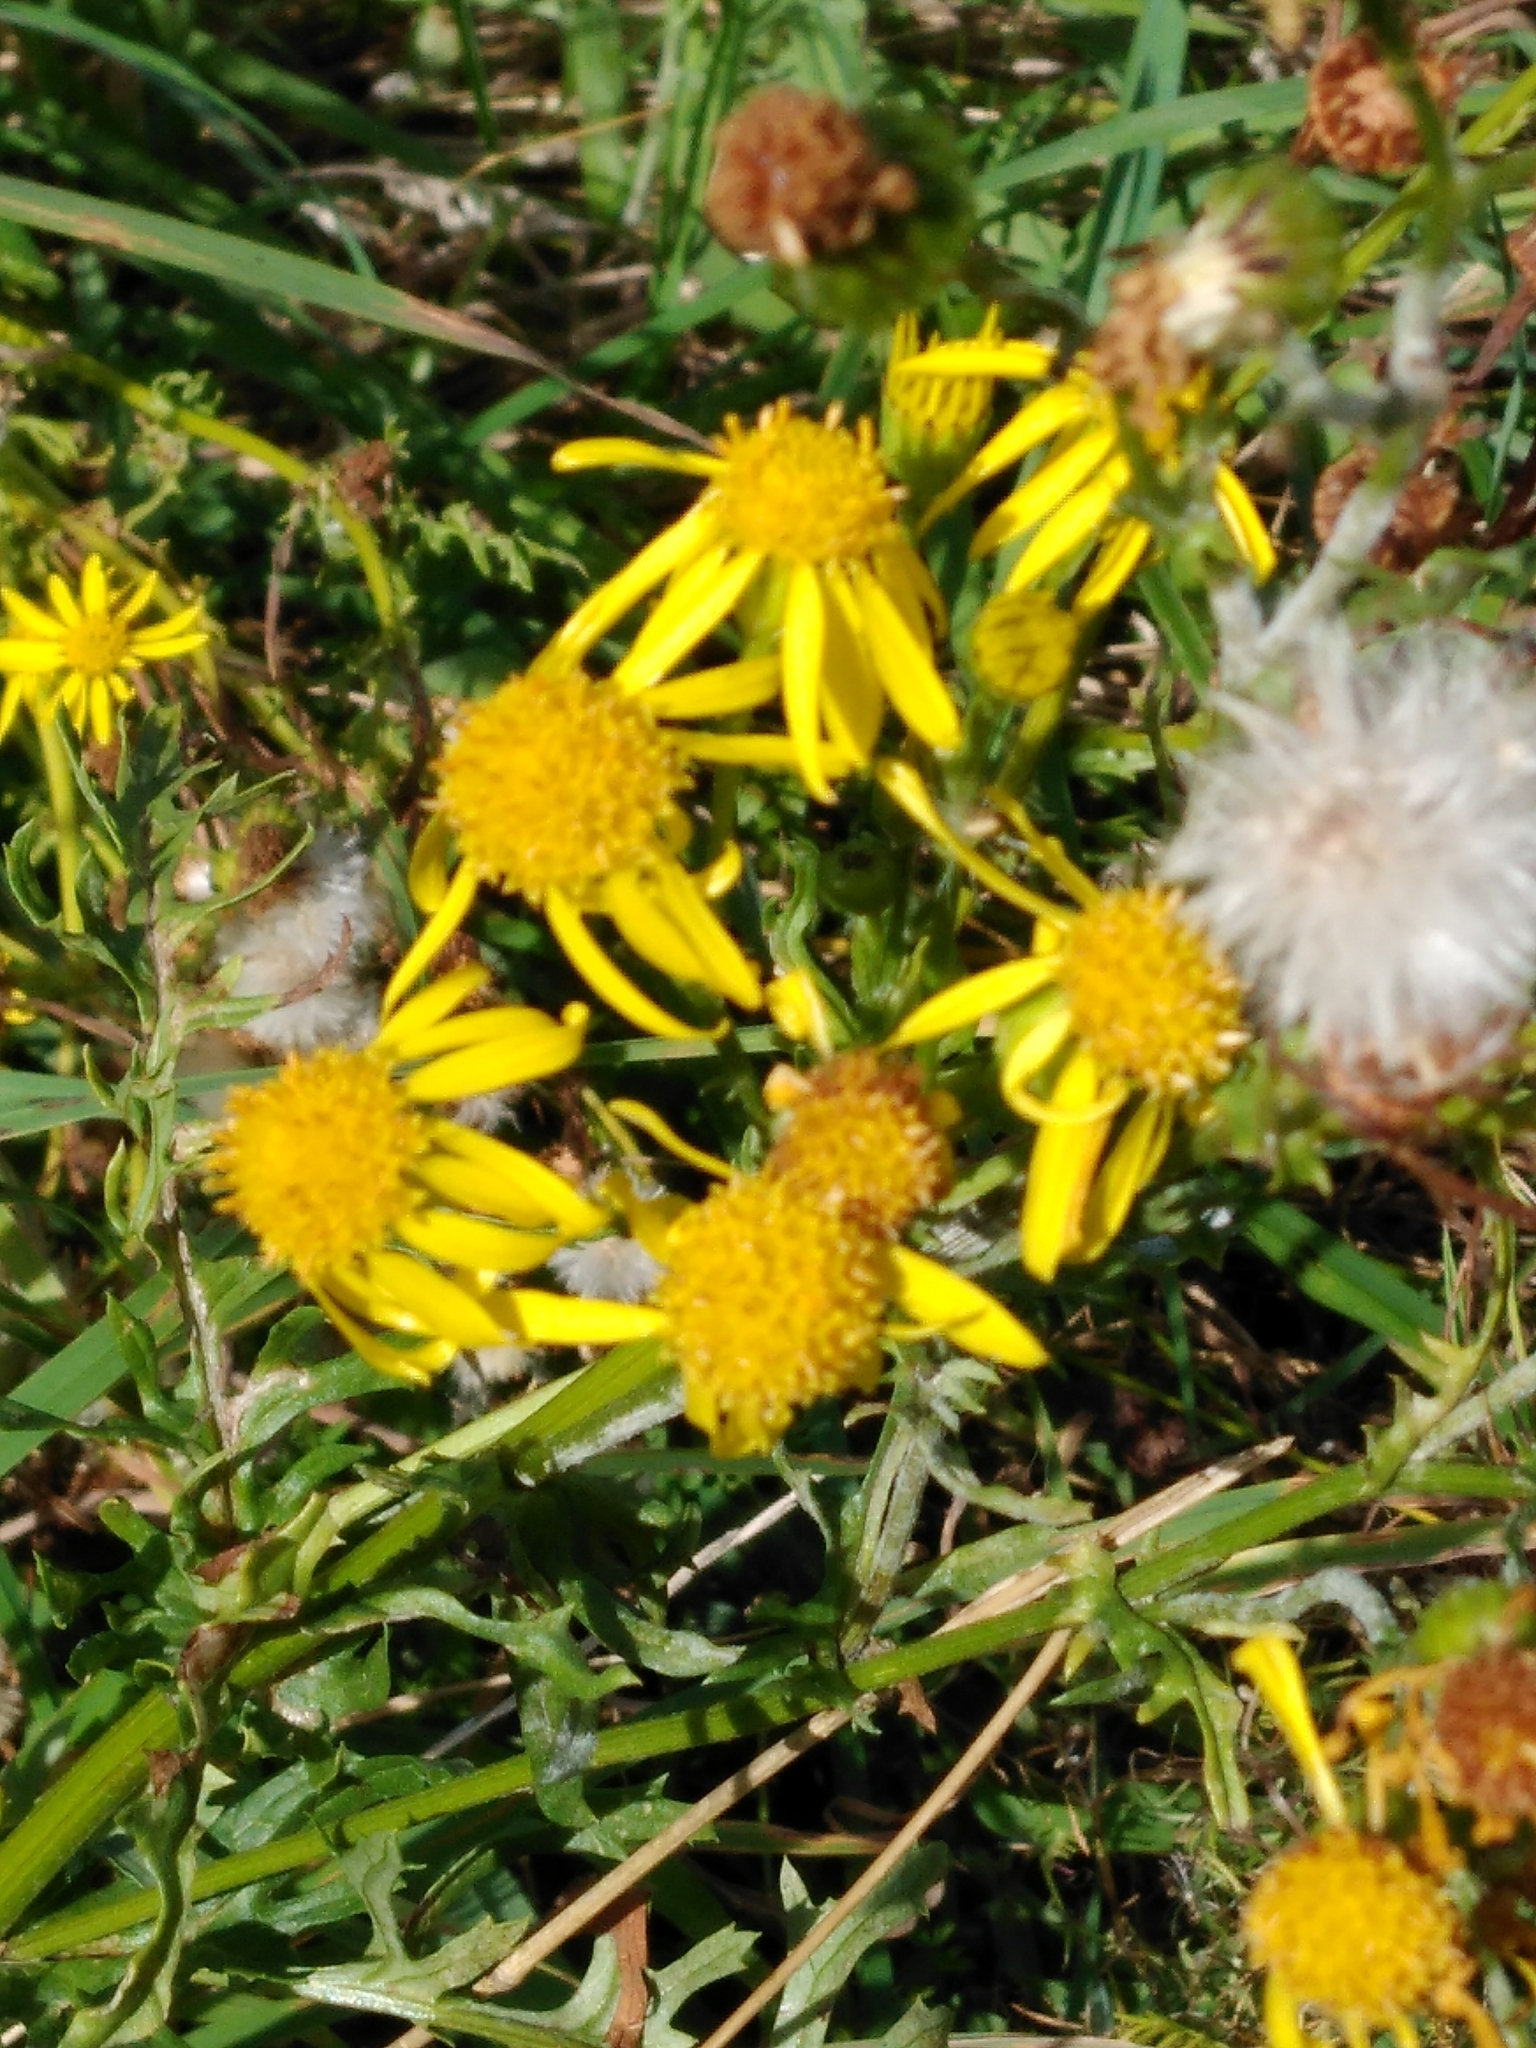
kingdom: Plantae
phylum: Tracheophyta
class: Magnoliopsida
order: Asterales
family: Asteraceae
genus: Jacobaea
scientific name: Jacobaea vulgaris
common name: Stinking willie
